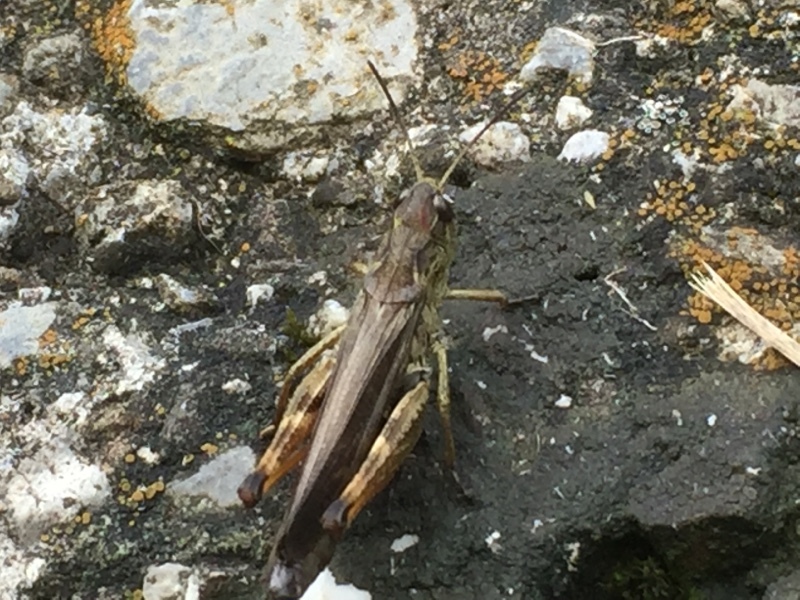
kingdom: Animalia
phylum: Arthropoda
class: Insecta
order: Orthoptera
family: Acrididae
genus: Stauroderus
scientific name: Stauroderus scalaris
